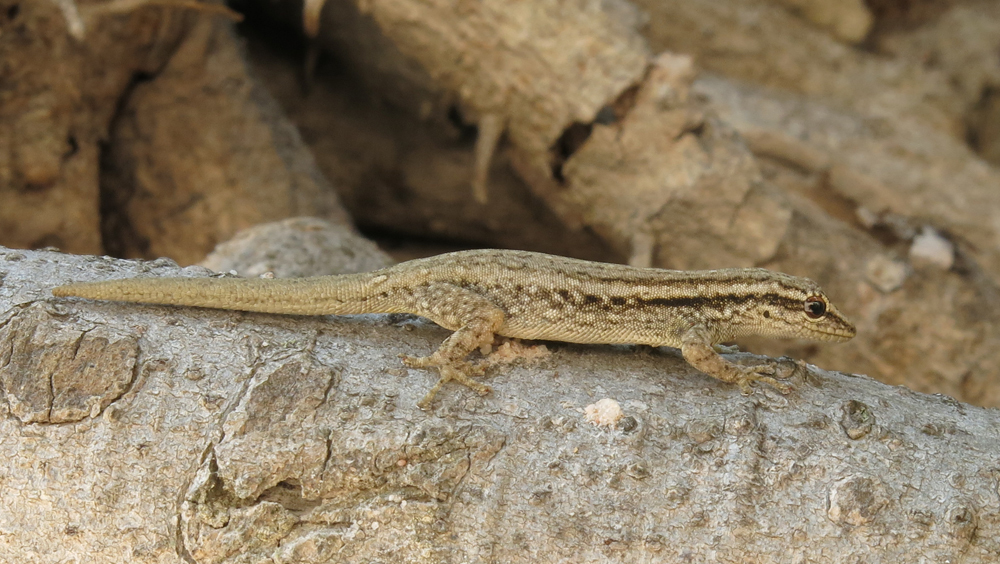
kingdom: Animalia
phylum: Chordata
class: Squamata
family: Gekkonidae
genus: Lygodactylus
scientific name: Lygodactylus capensis
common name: Cape dwarf gecko
